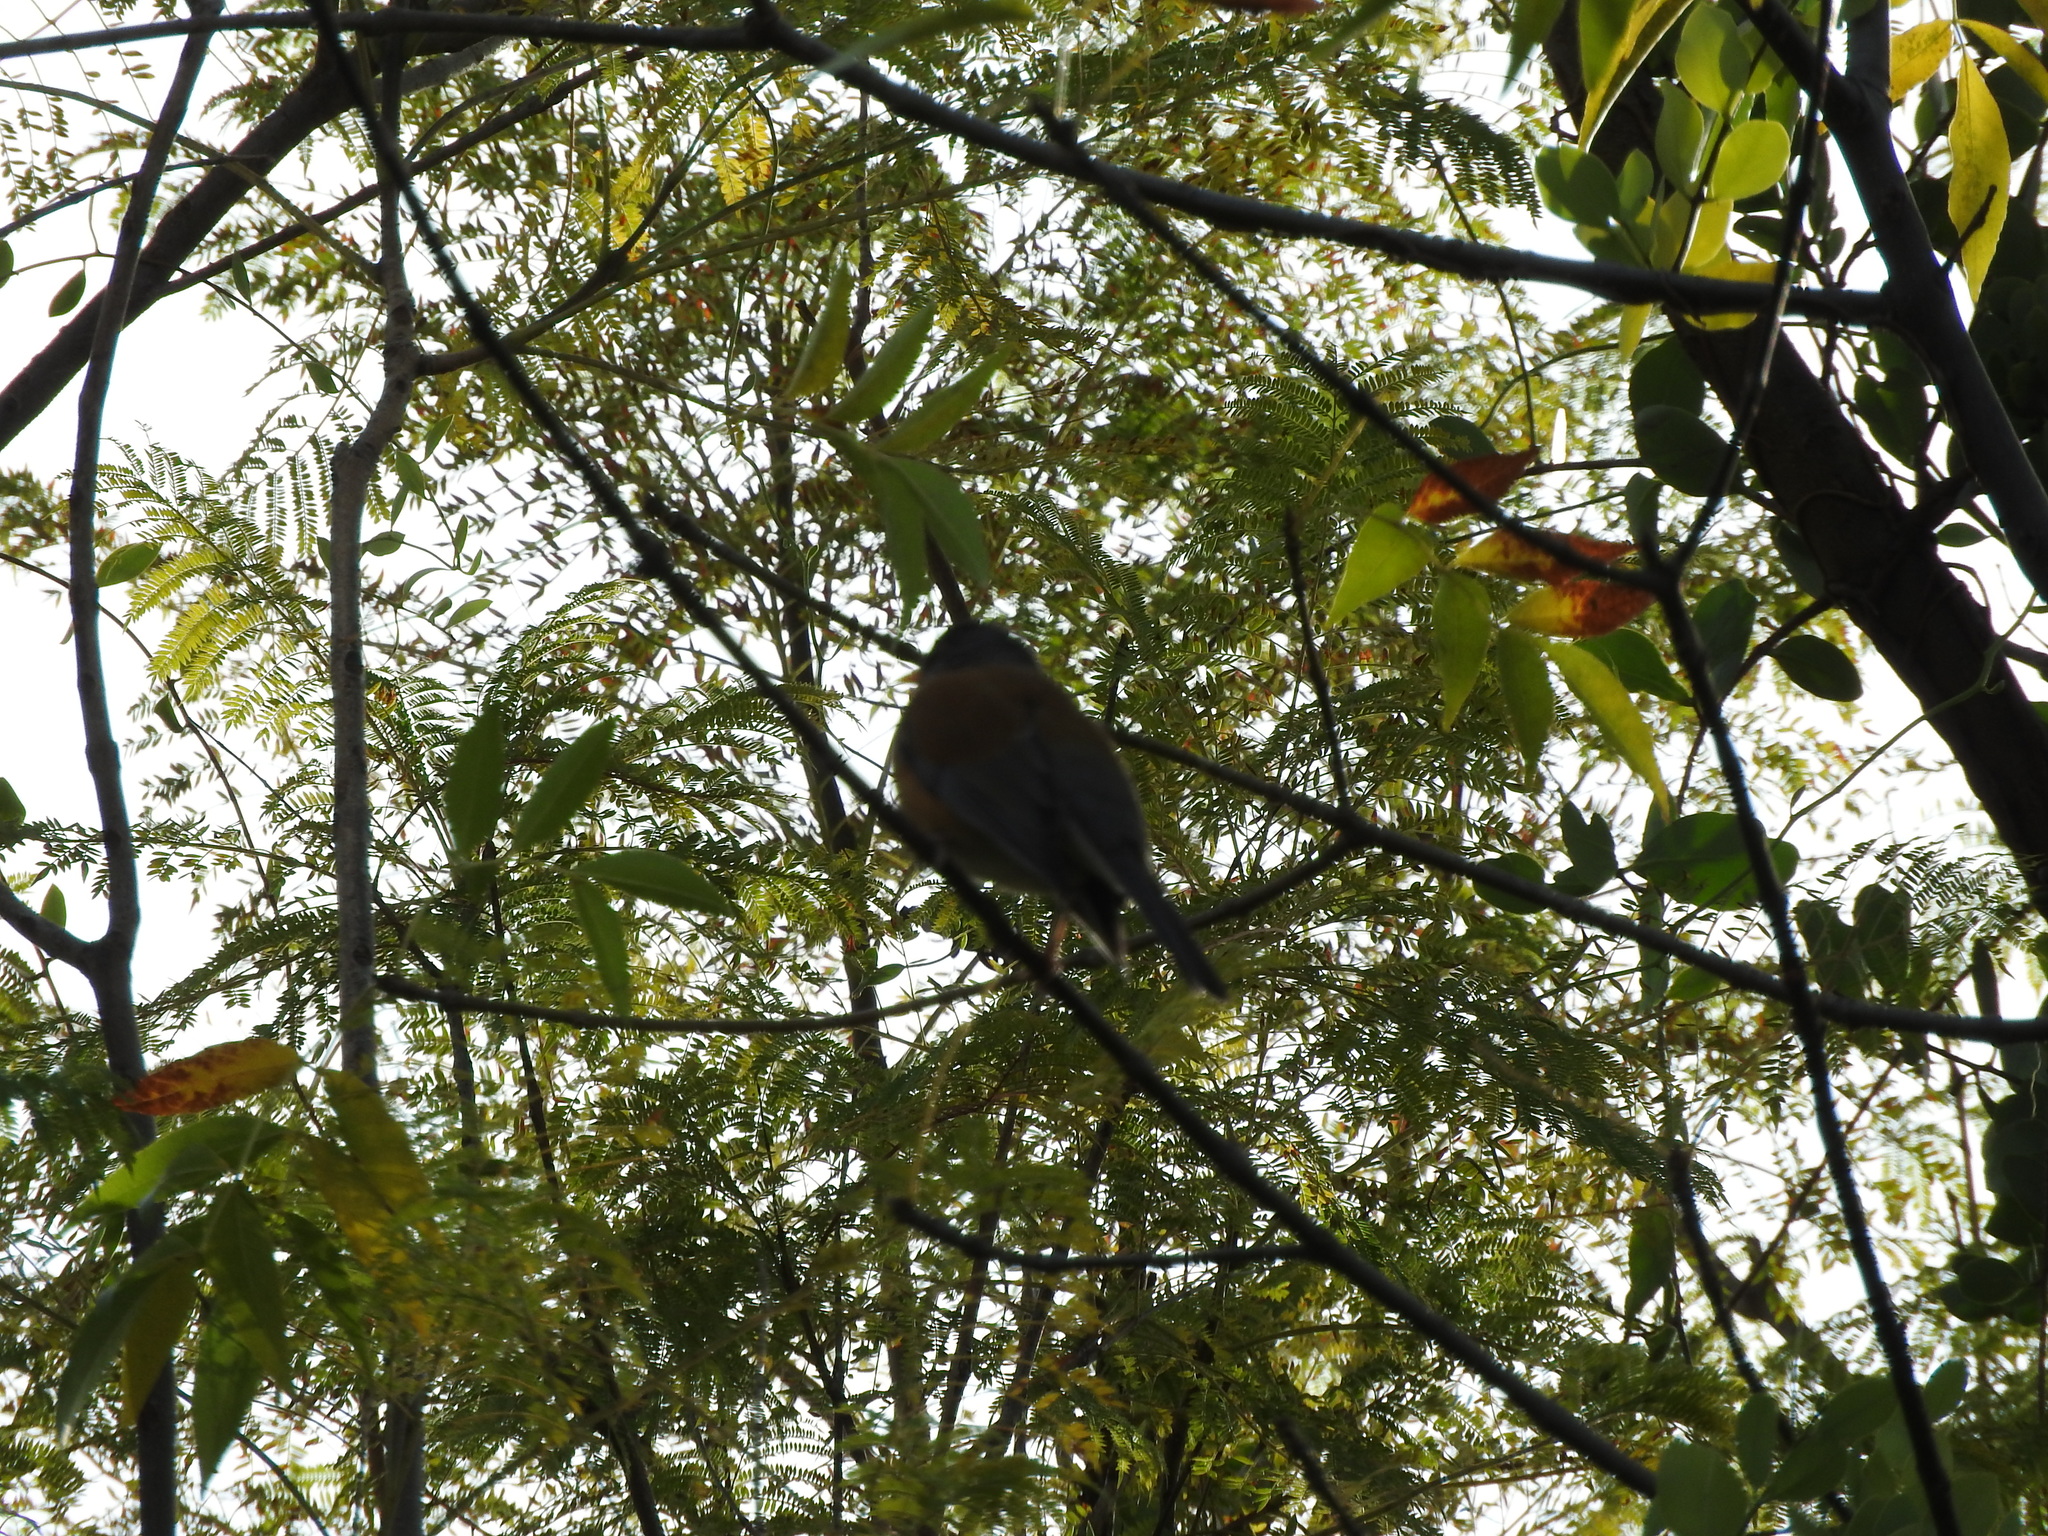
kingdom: Animalia
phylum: Chordata
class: Aves
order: Passeriformes
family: Turdidae
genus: Turdus
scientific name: Turdus rufopalliatus
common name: Rufous-backed robin
